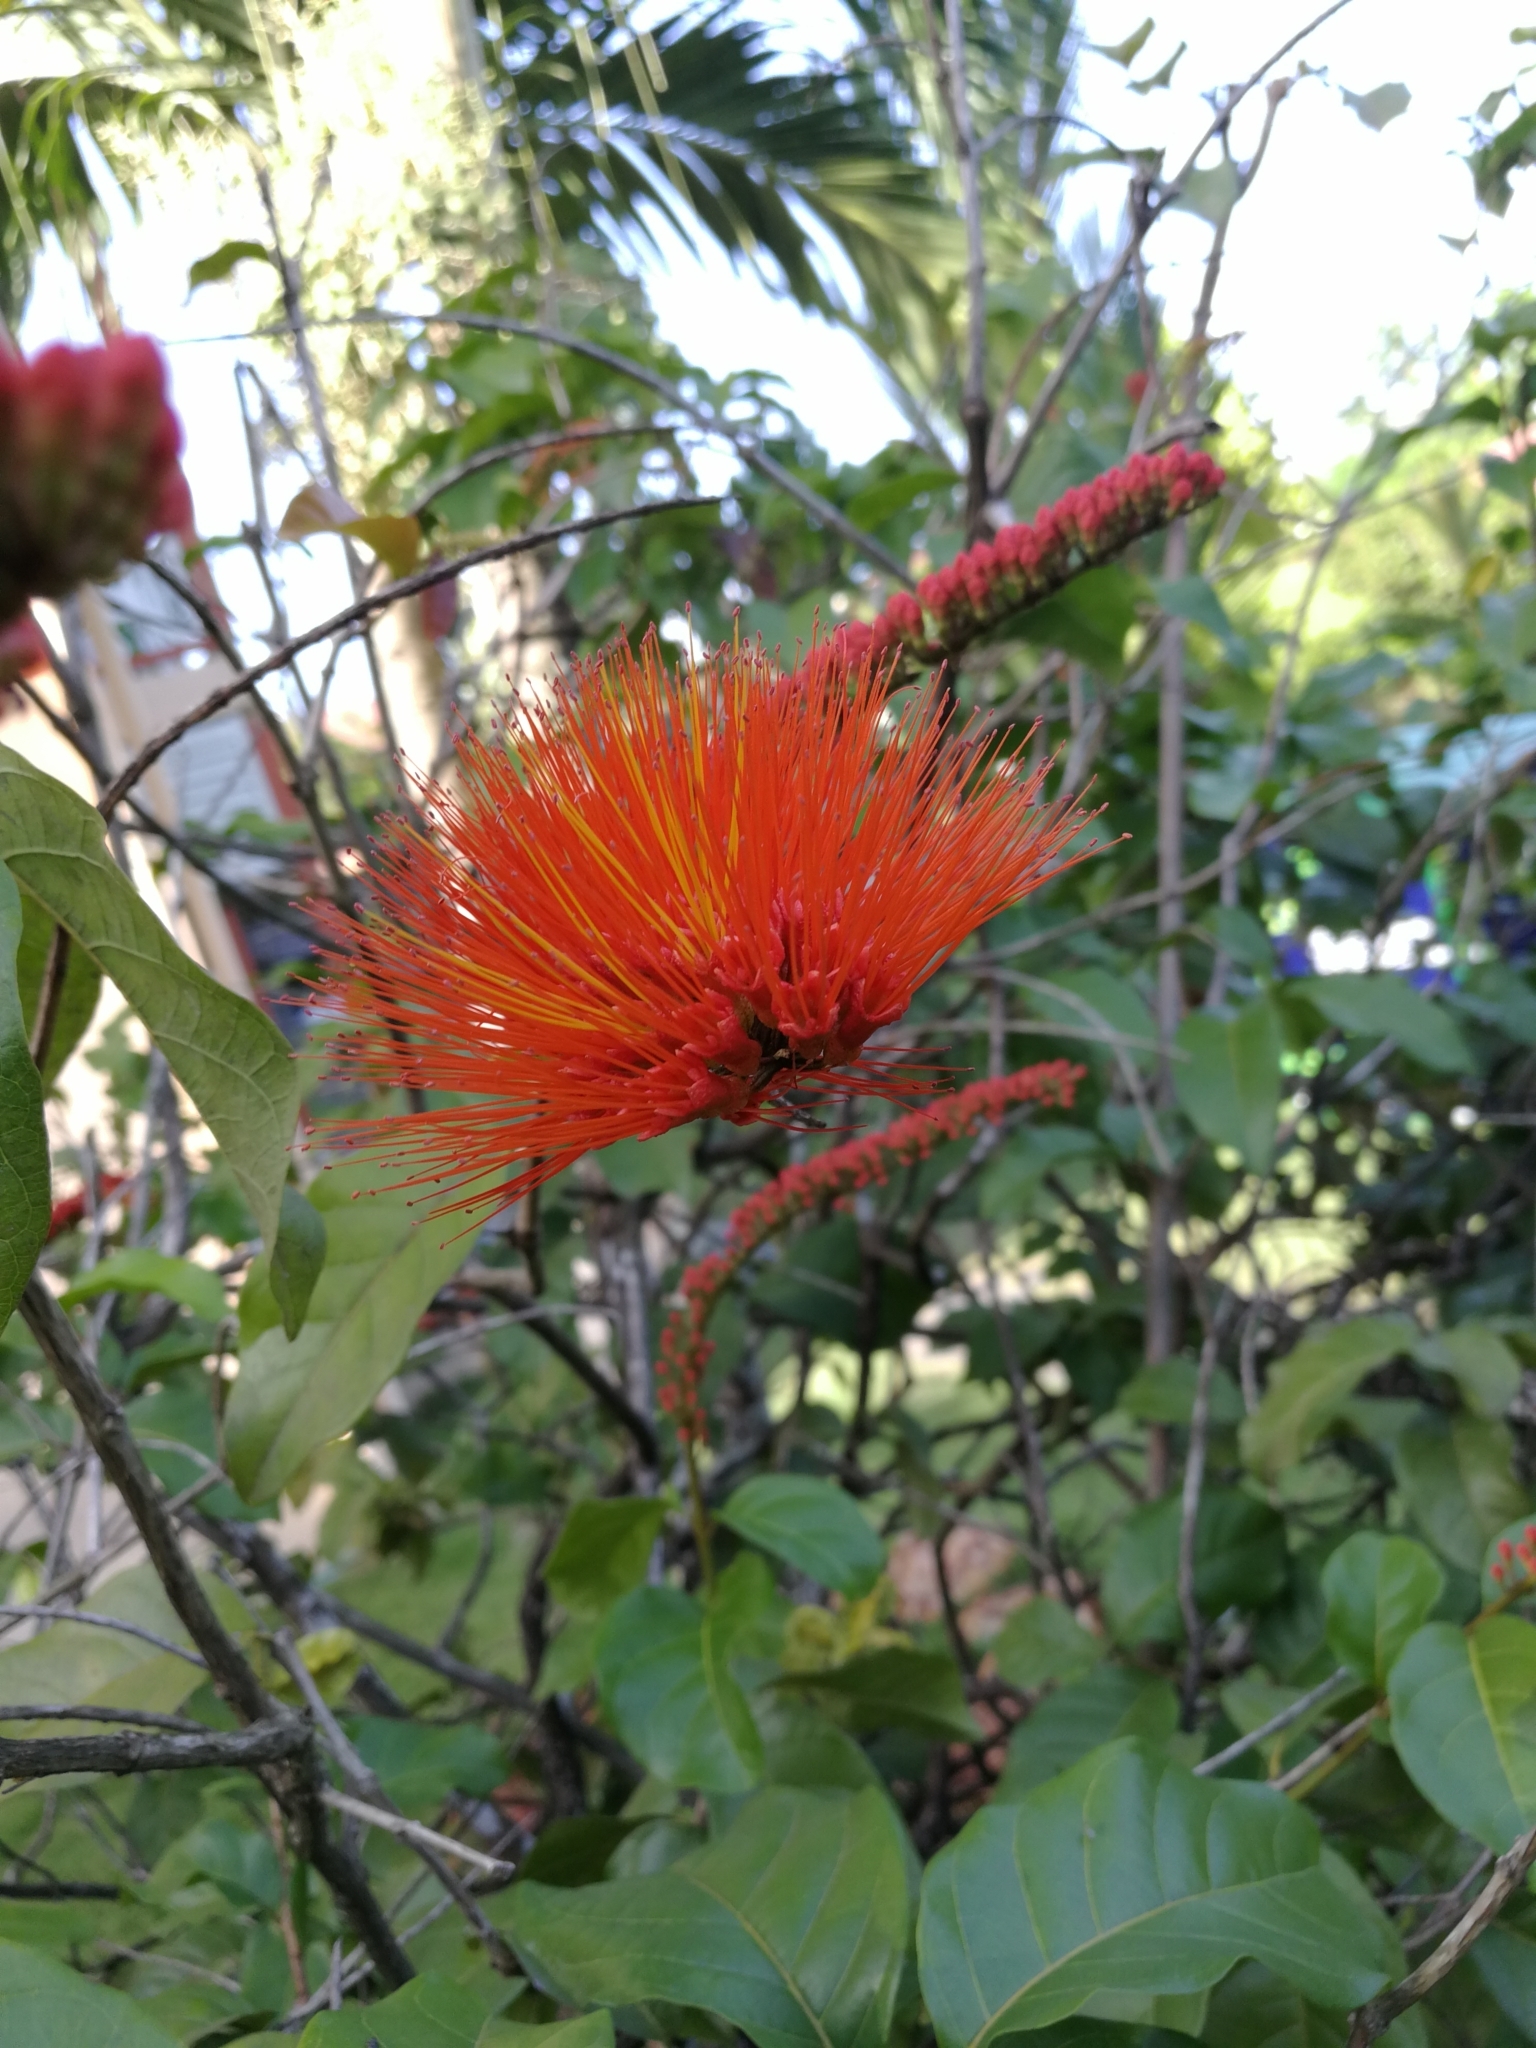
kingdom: Plantae
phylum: Tracheophyta
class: Magnoliopsida
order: Myrtales
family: Combretaceae
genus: Combretum
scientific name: Combretum farinosum
